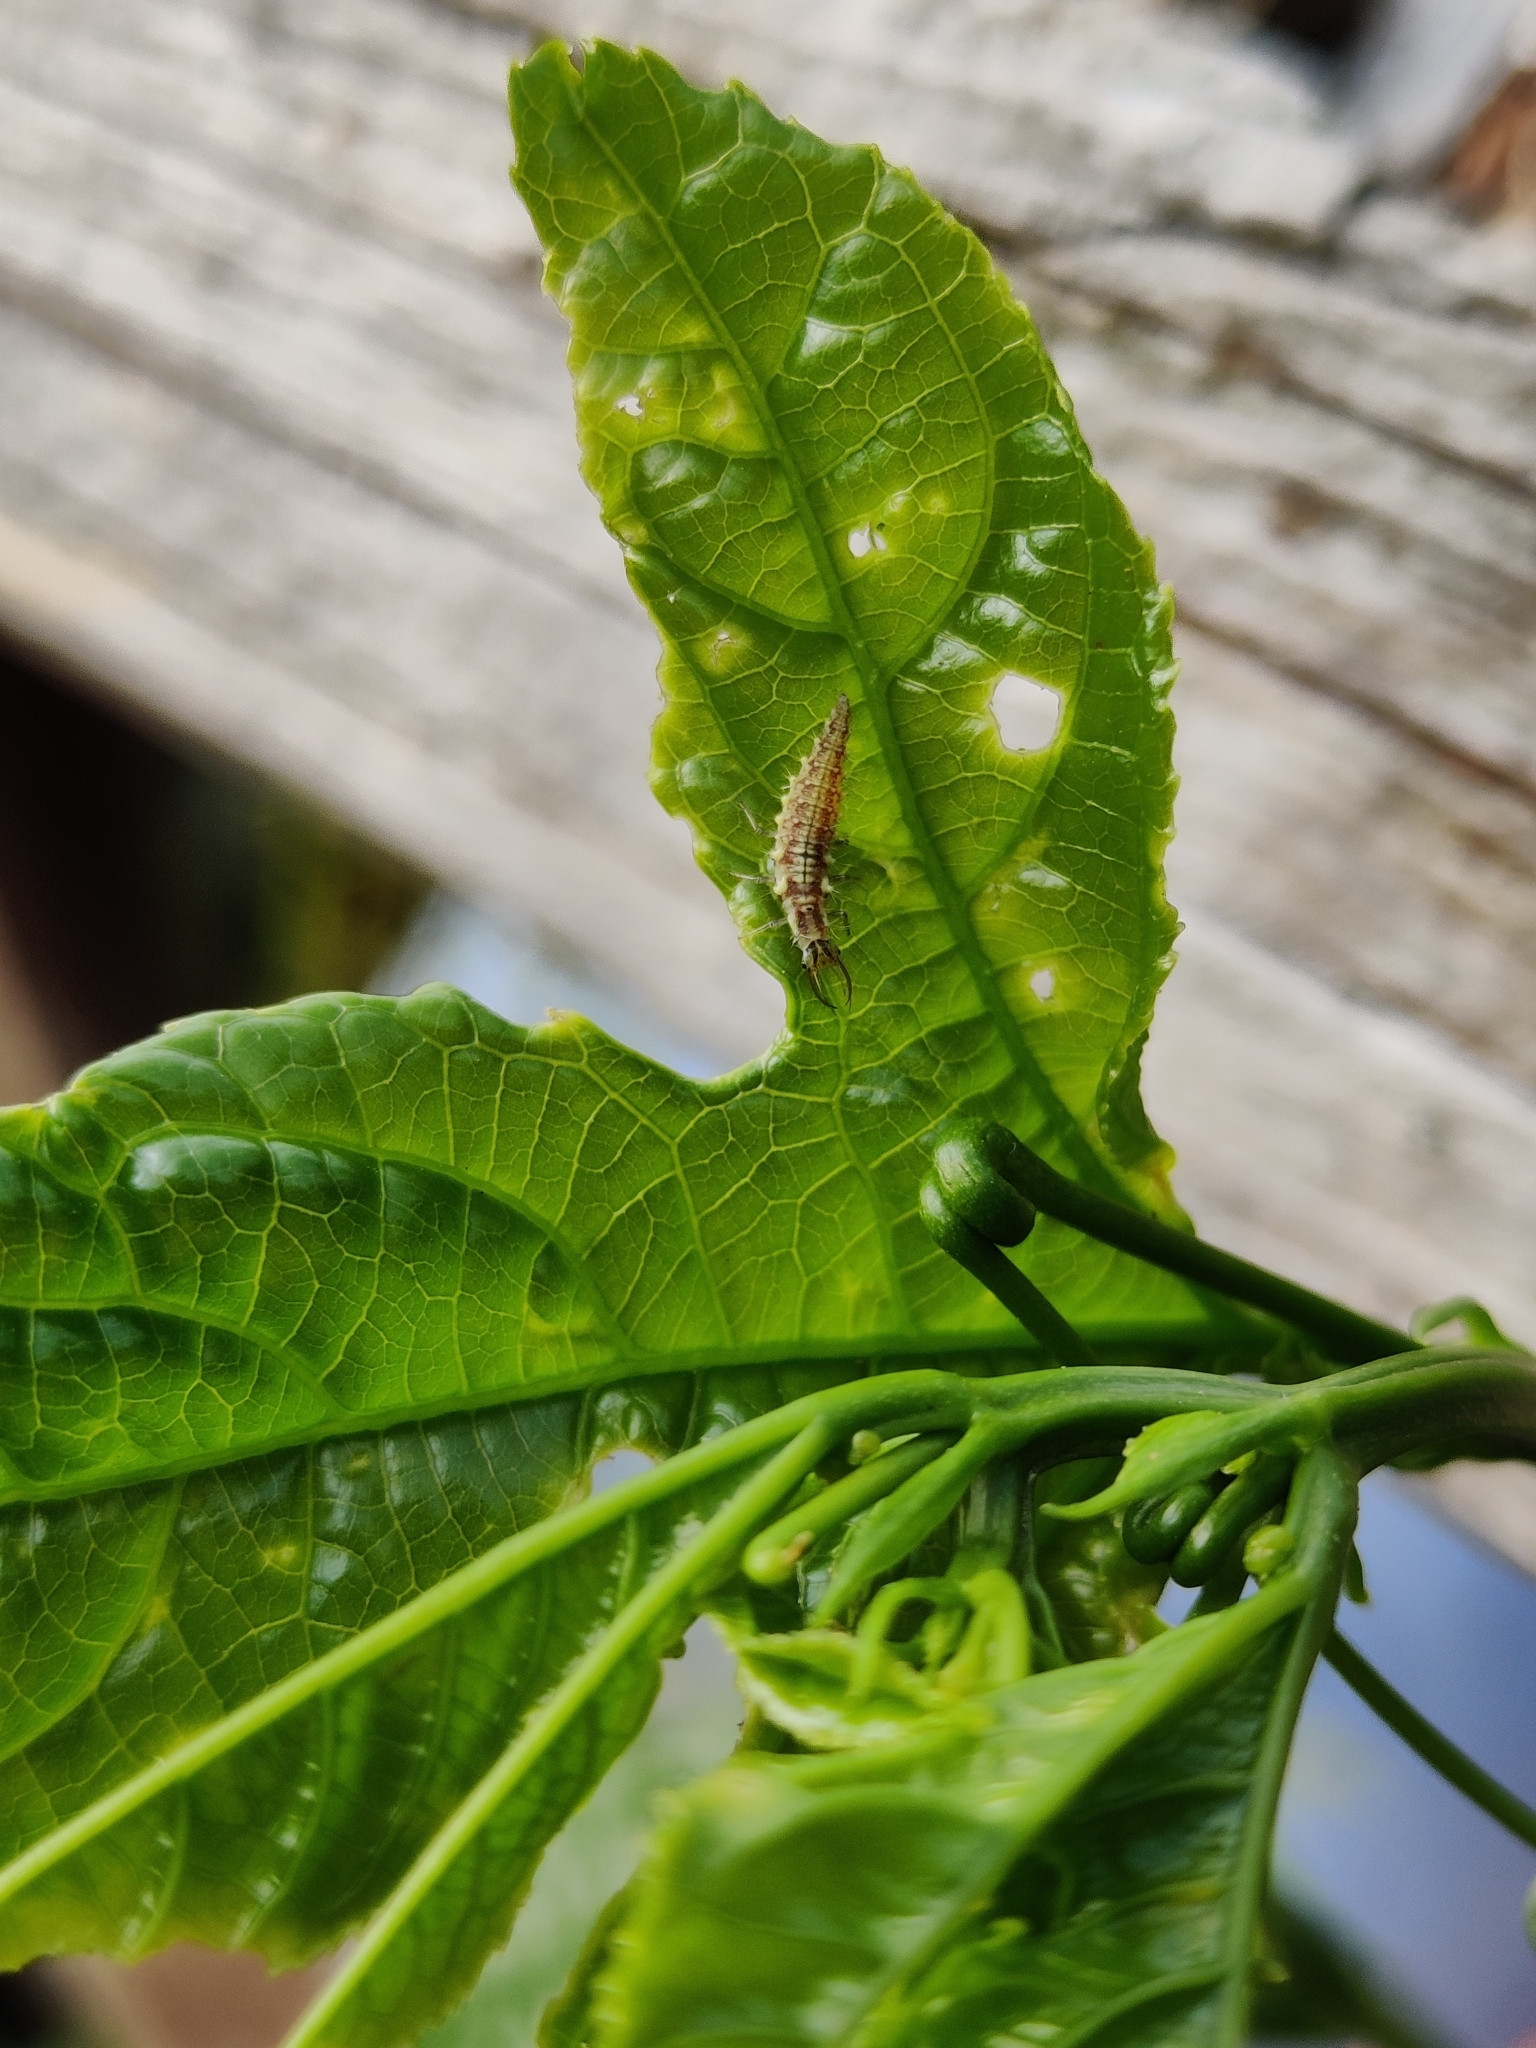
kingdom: Animalia
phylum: Arthropoda
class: Insecta
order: Neuroptera
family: Chrysopidae
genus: Chrysoperla
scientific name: Chrysoperla
